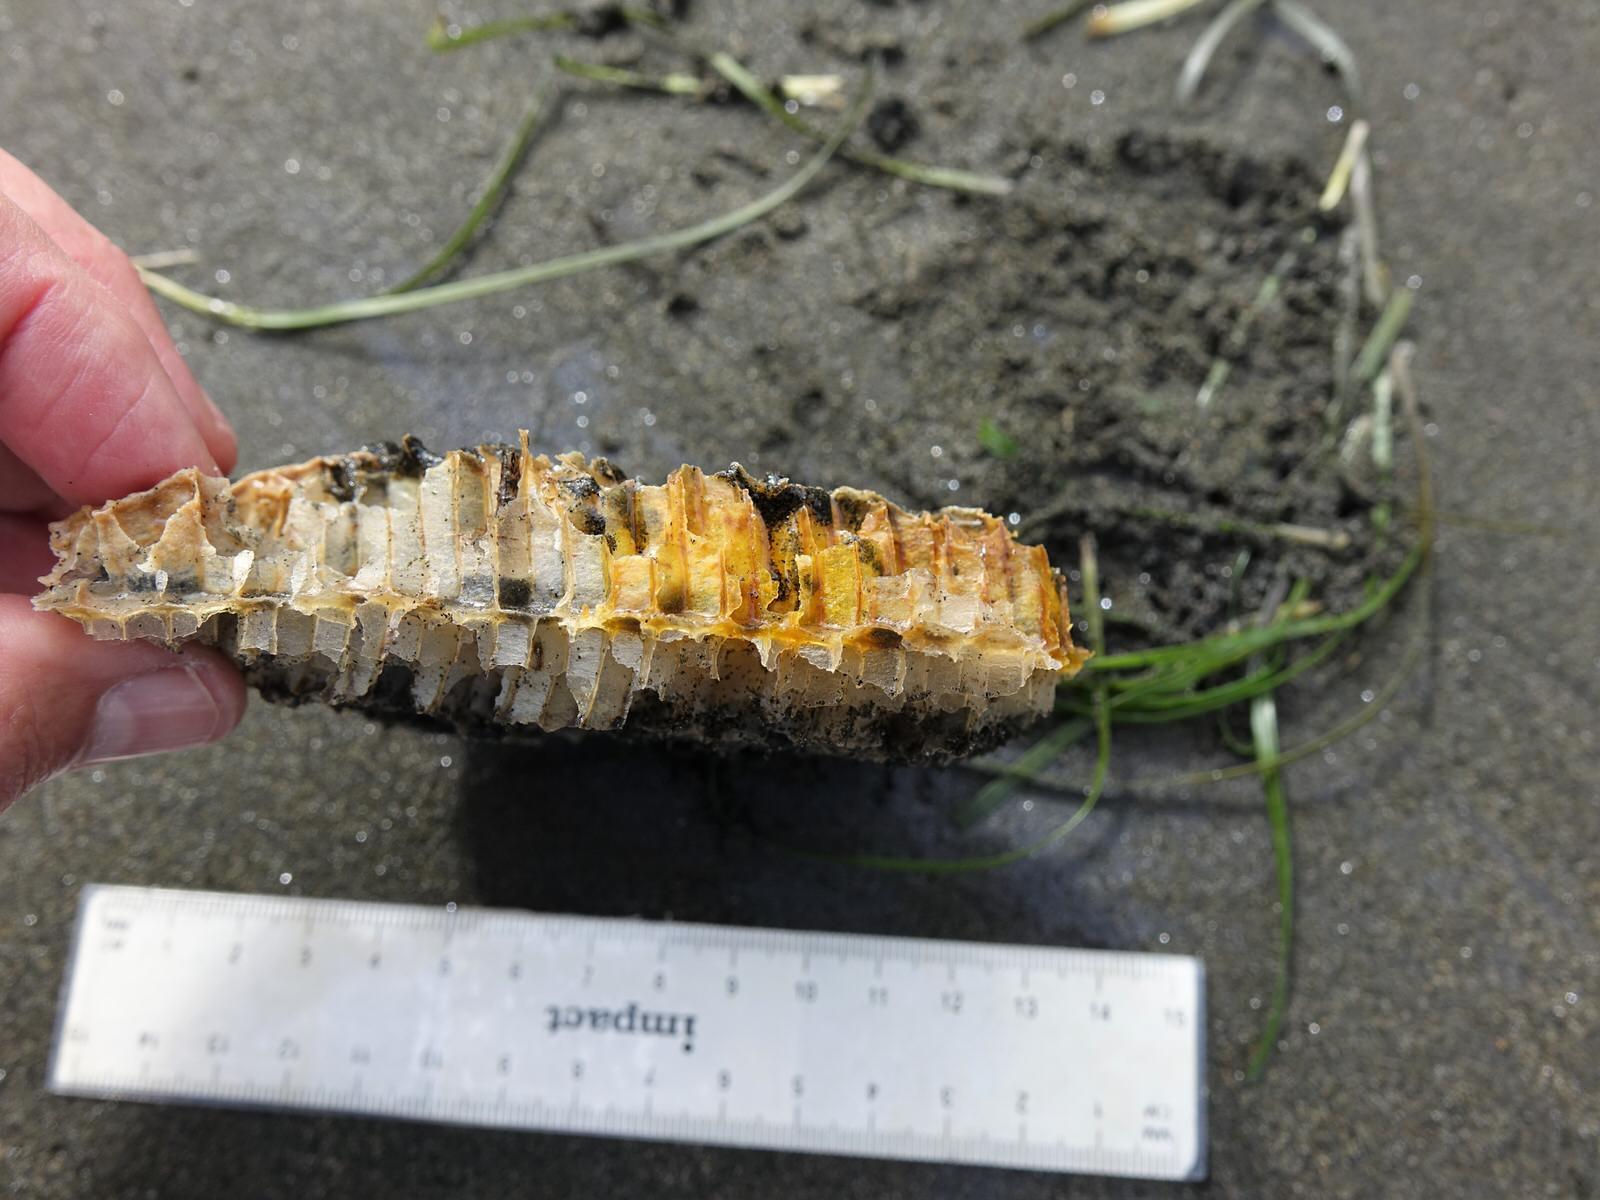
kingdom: Animalia
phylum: Arthropoda
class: Insecta
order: Hymenoptera
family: Apidae
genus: Apis
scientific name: Apis mellifera
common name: Honey bee
